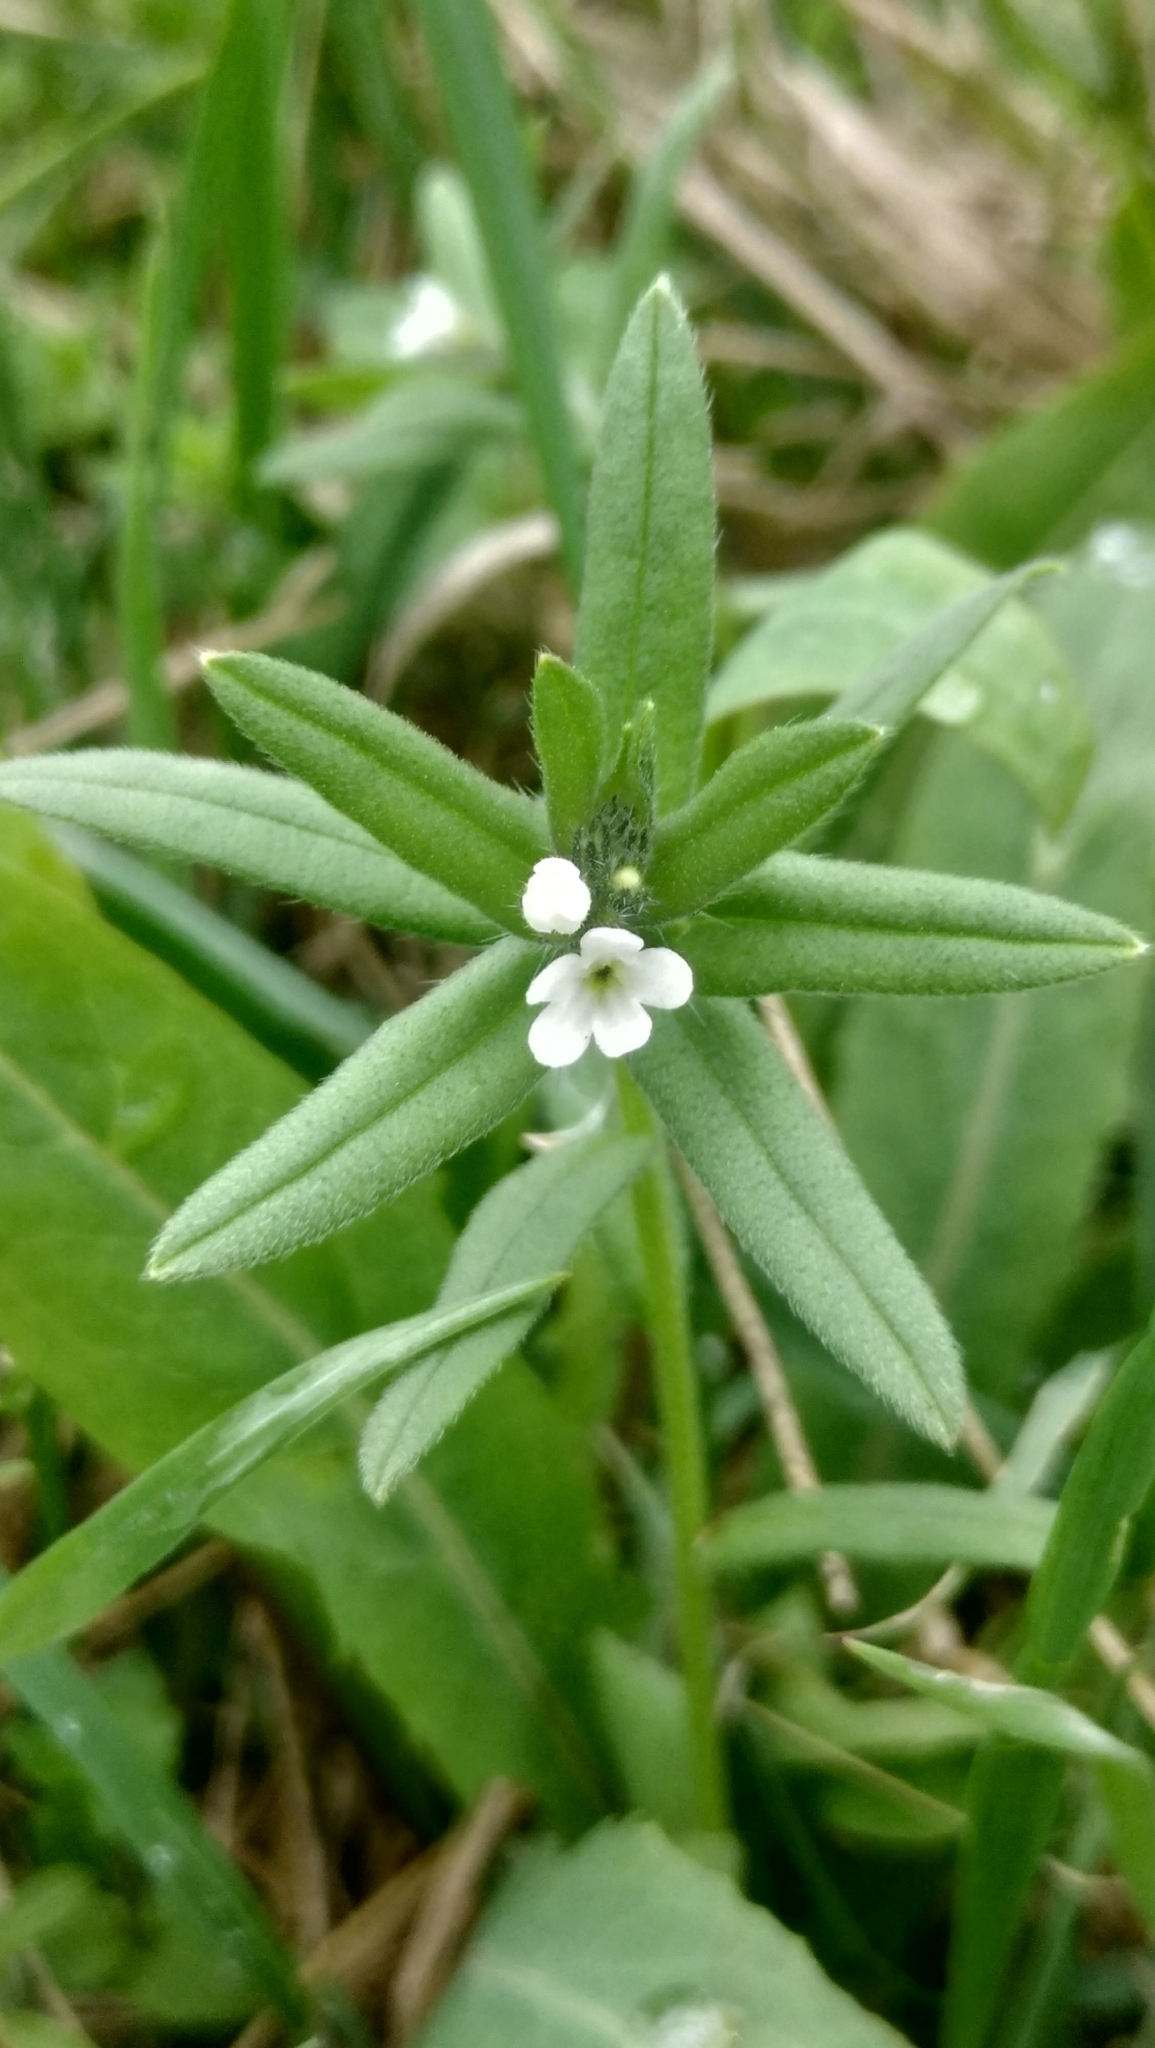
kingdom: Plantae
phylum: Tracheophyta
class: Magnoliopsida
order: Boraginales
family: Boraginaceae
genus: Buglossoides
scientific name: Buglossoides arvensis
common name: Corn gromwell
